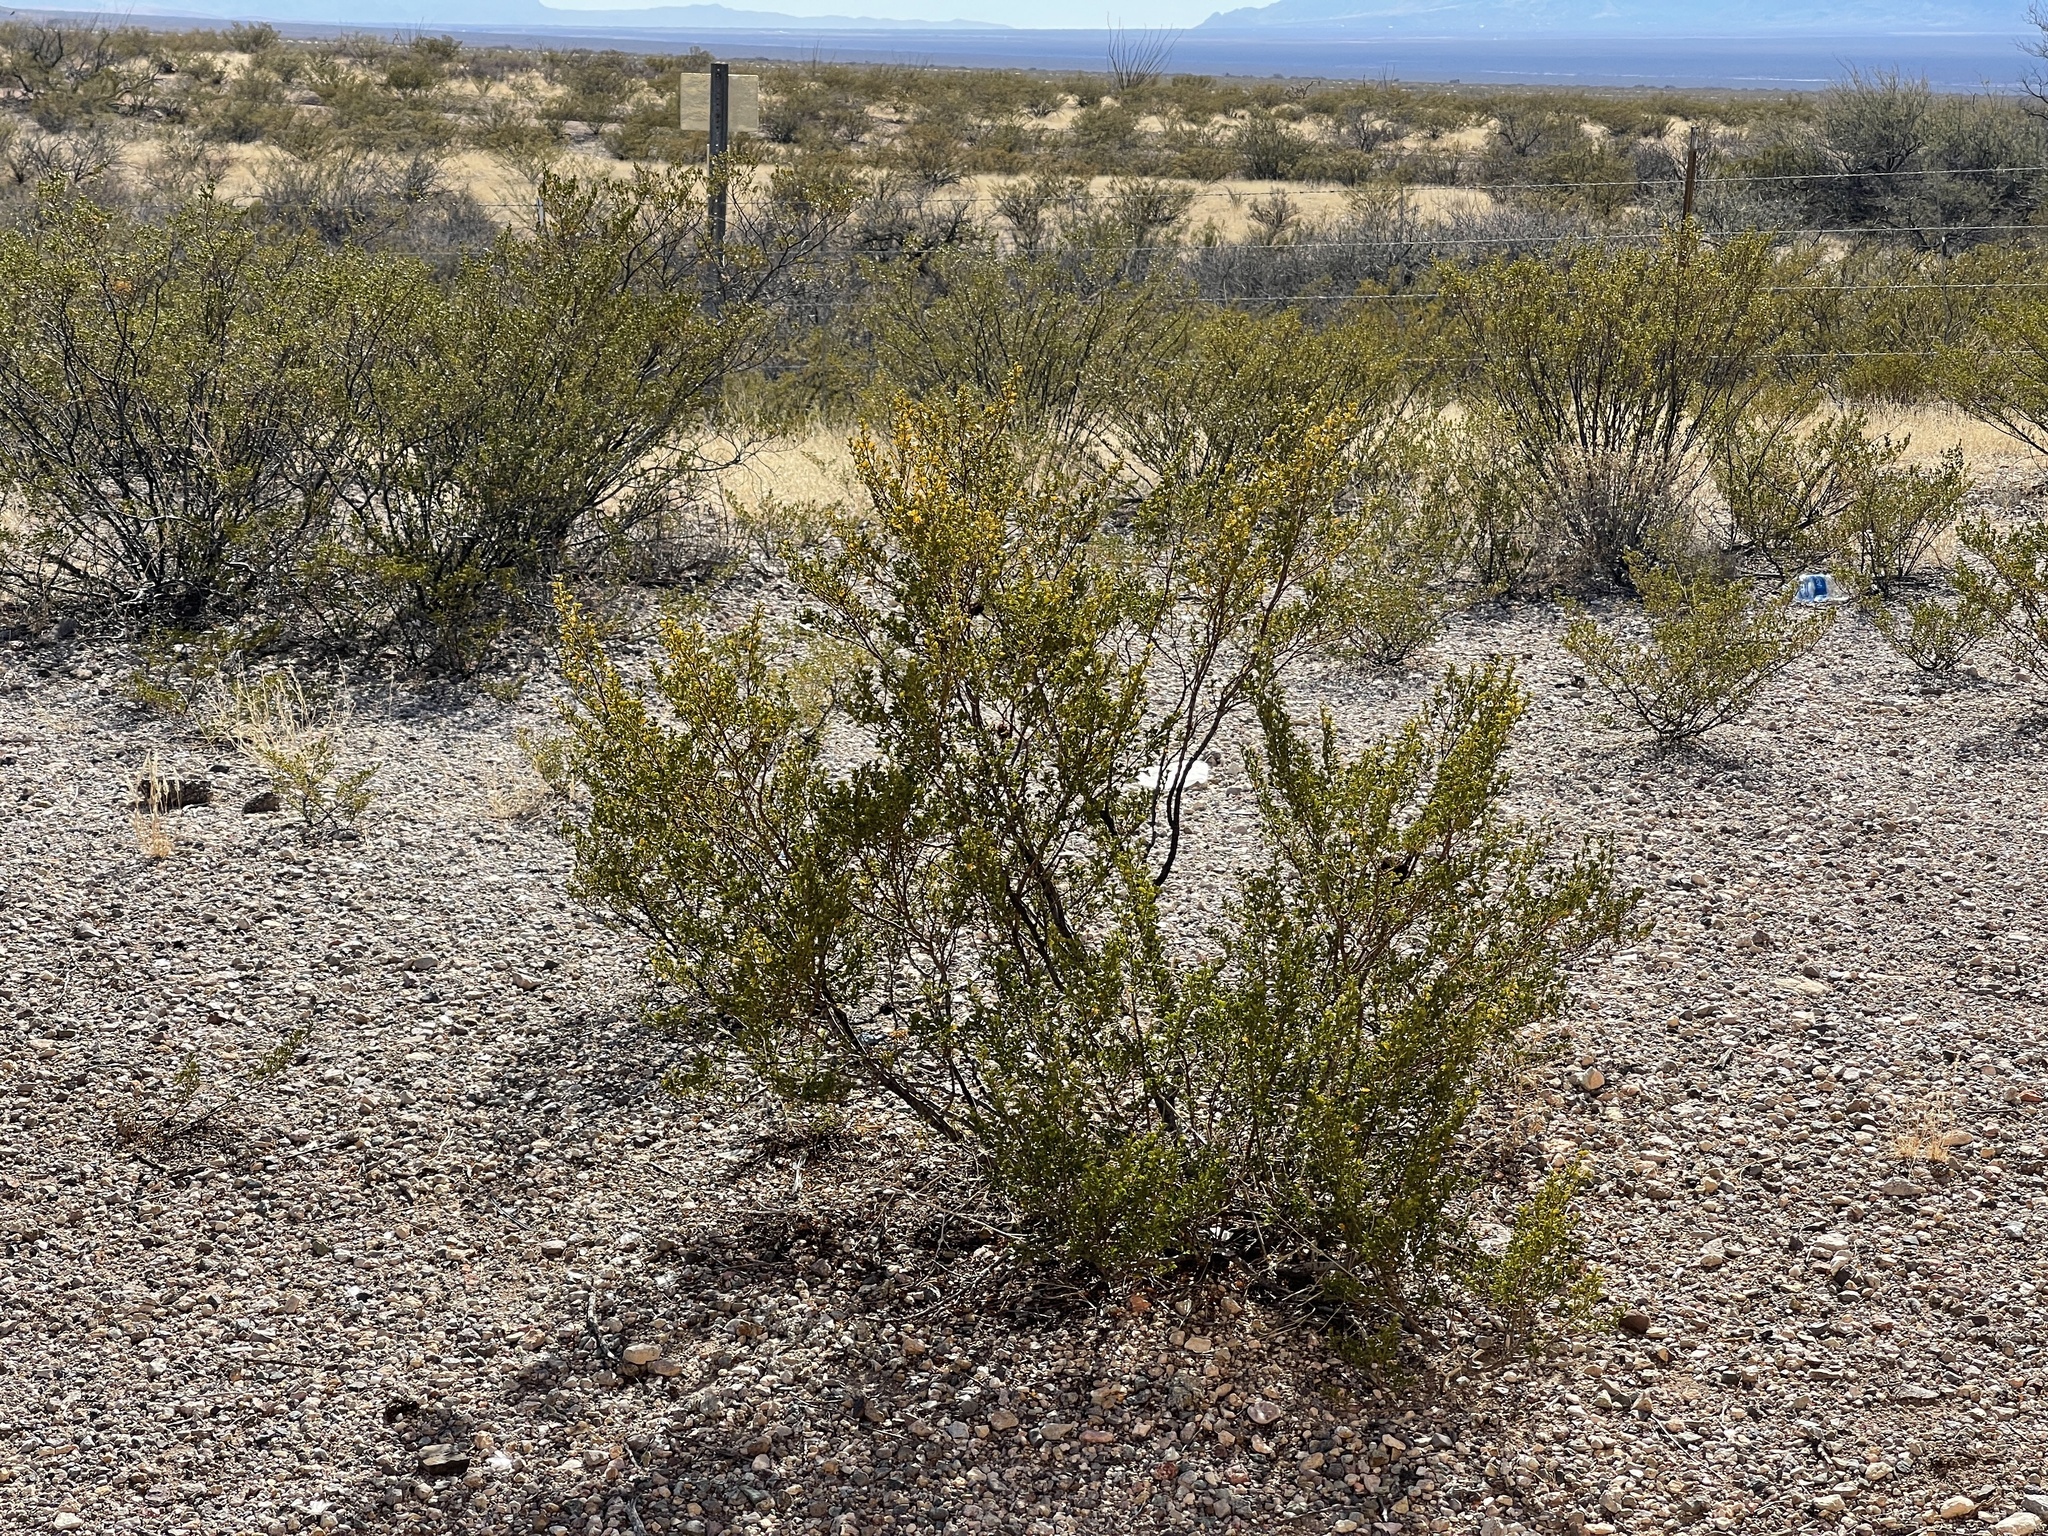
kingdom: Plantae
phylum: Tracheophyta
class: Magnoliopsida
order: Zygophyllales
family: Zygophyllaceae
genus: Larrea
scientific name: Larrea tridentata
